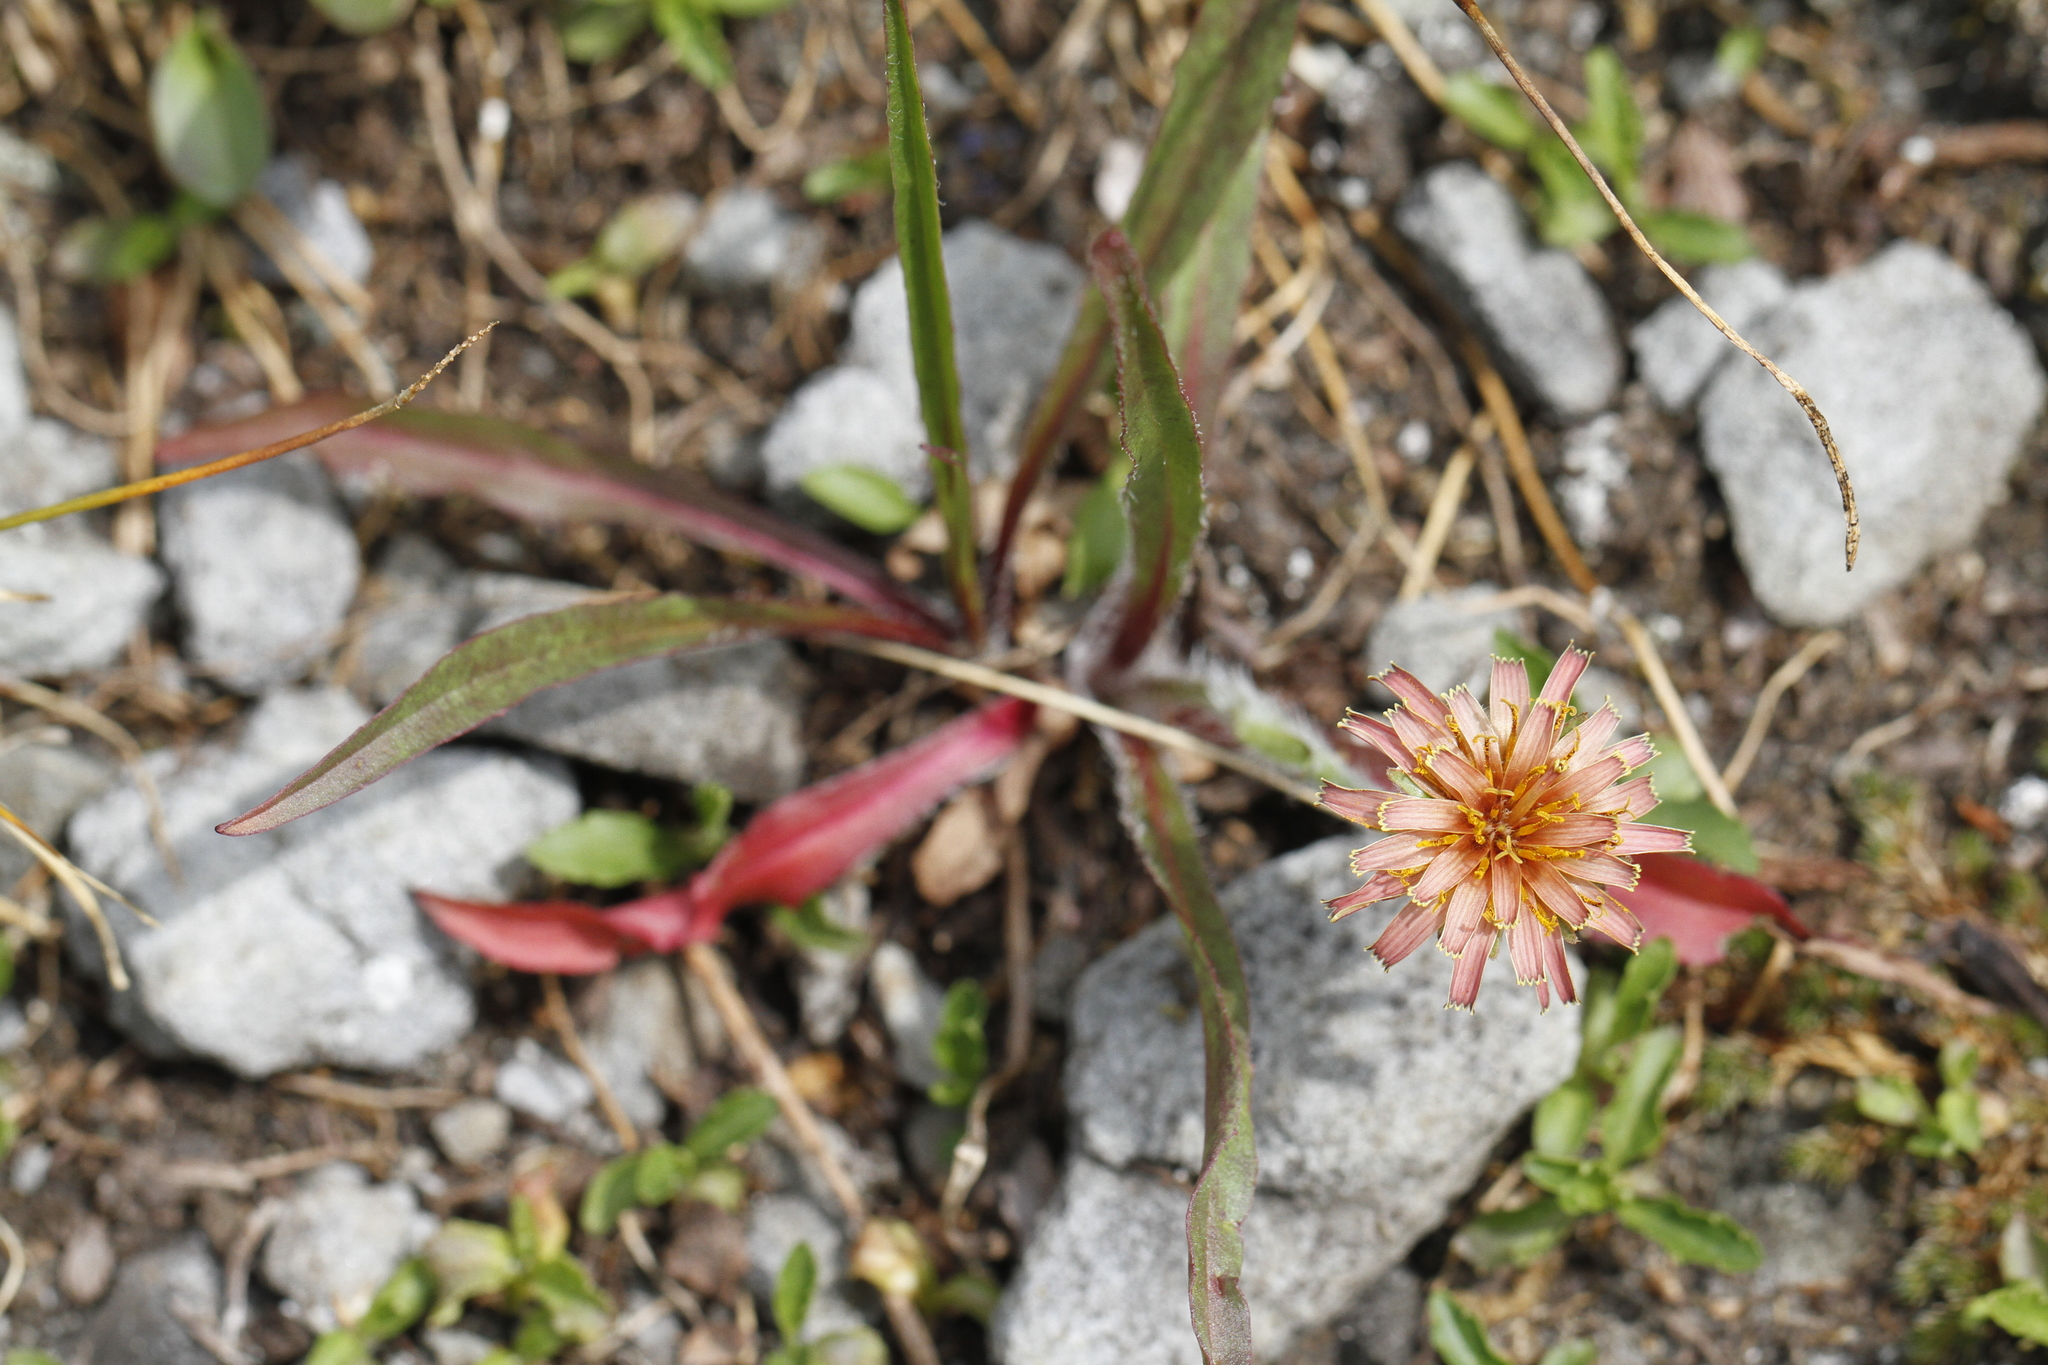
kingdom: Plantae
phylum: Tracheophyta
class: Magnoliopsida
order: Asterales
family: Asteraceae
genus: Agoseris
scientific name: Agoseris aurantiaca
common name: Mountain agoseris
